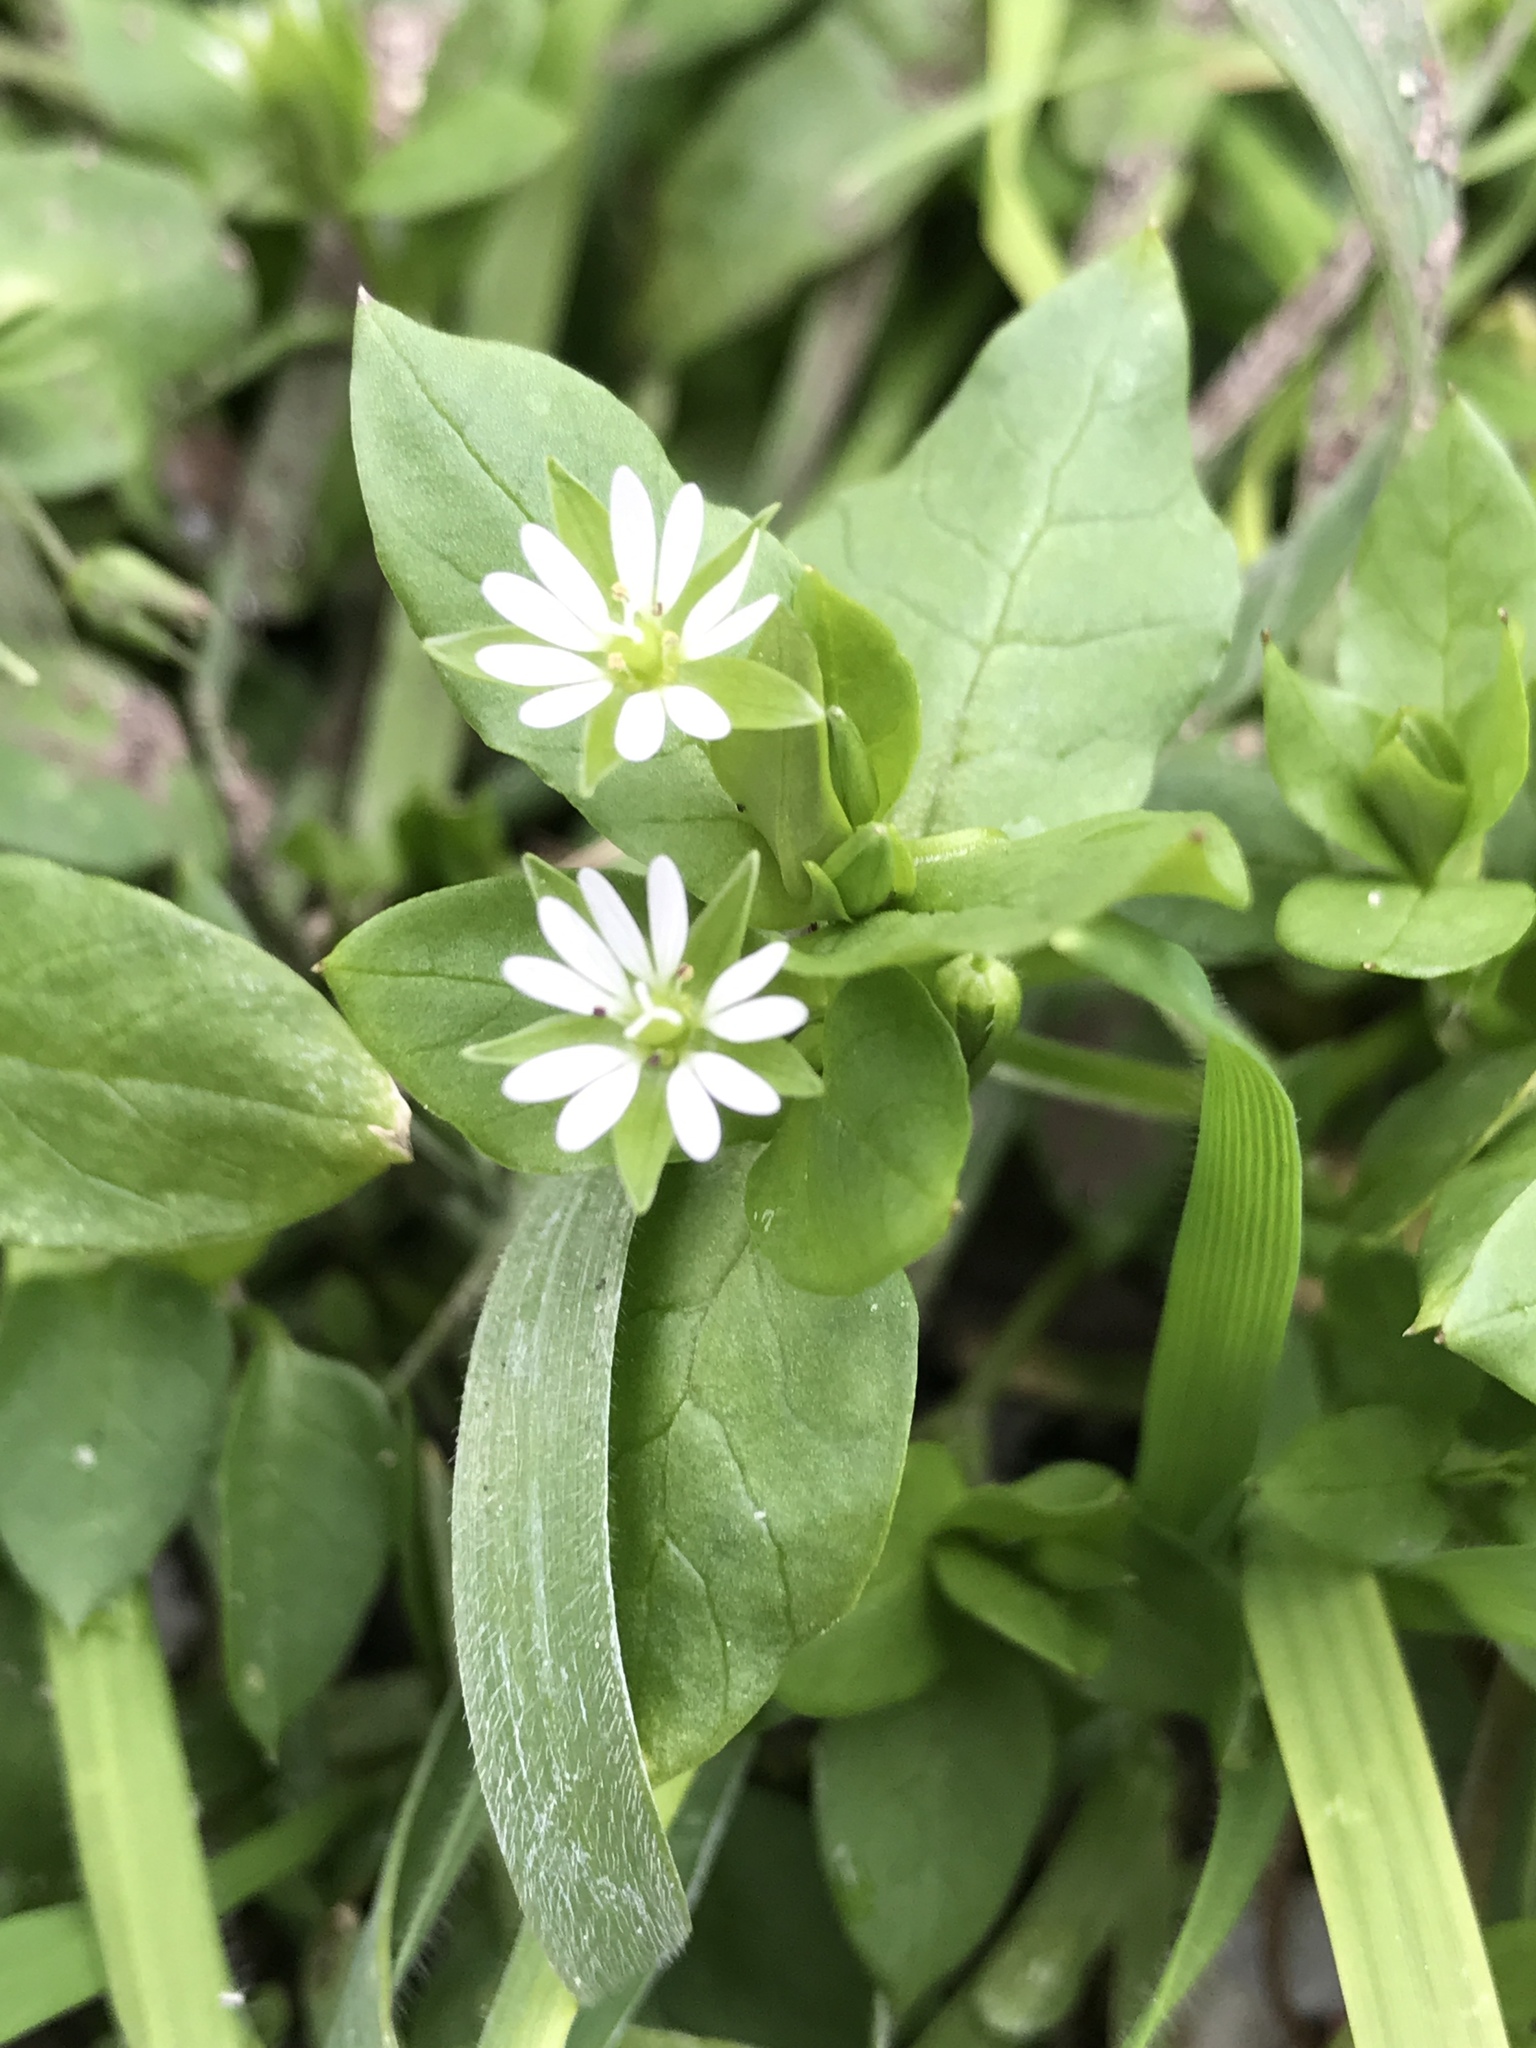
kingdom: Plantae
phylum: Tracheophyta
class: Magnoliopsida
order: Caryophyllales
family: Caryophyllaceae
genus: Stellaria
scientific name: Stellaria media
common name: Common chickweed
